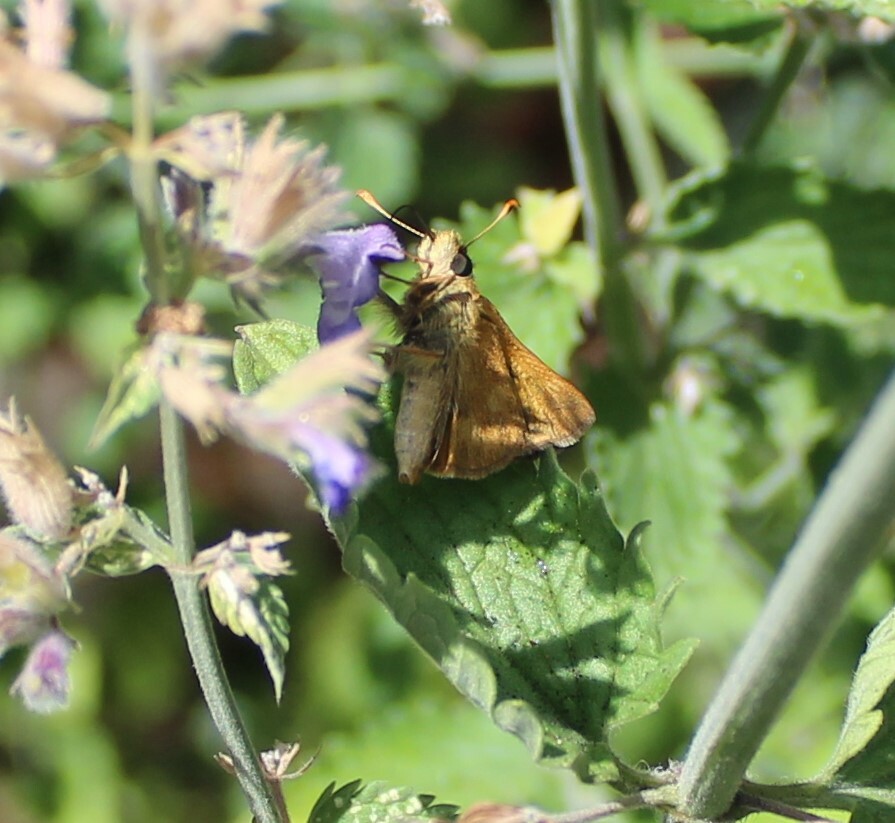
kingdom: Animalia
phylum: Arthropoda
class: Insecta
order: Lepidoptera
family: Hesperiidae
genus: Ochlodes
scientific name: Ochlodes sylvanoides
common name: Woodland skipper
